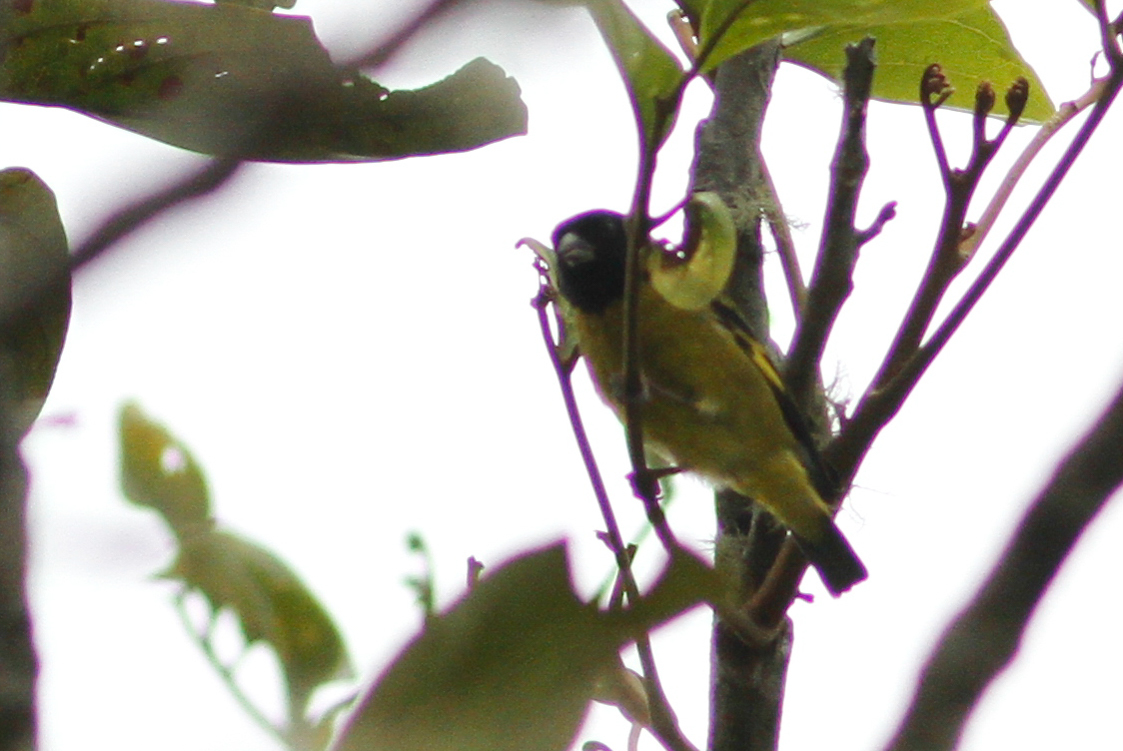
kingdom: Animalia
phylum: Chordata
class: Aves
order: Passeriformes
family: Fringillidae
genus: Spinus
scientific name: Spinus olivaceus
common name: Olivaceous siskin
